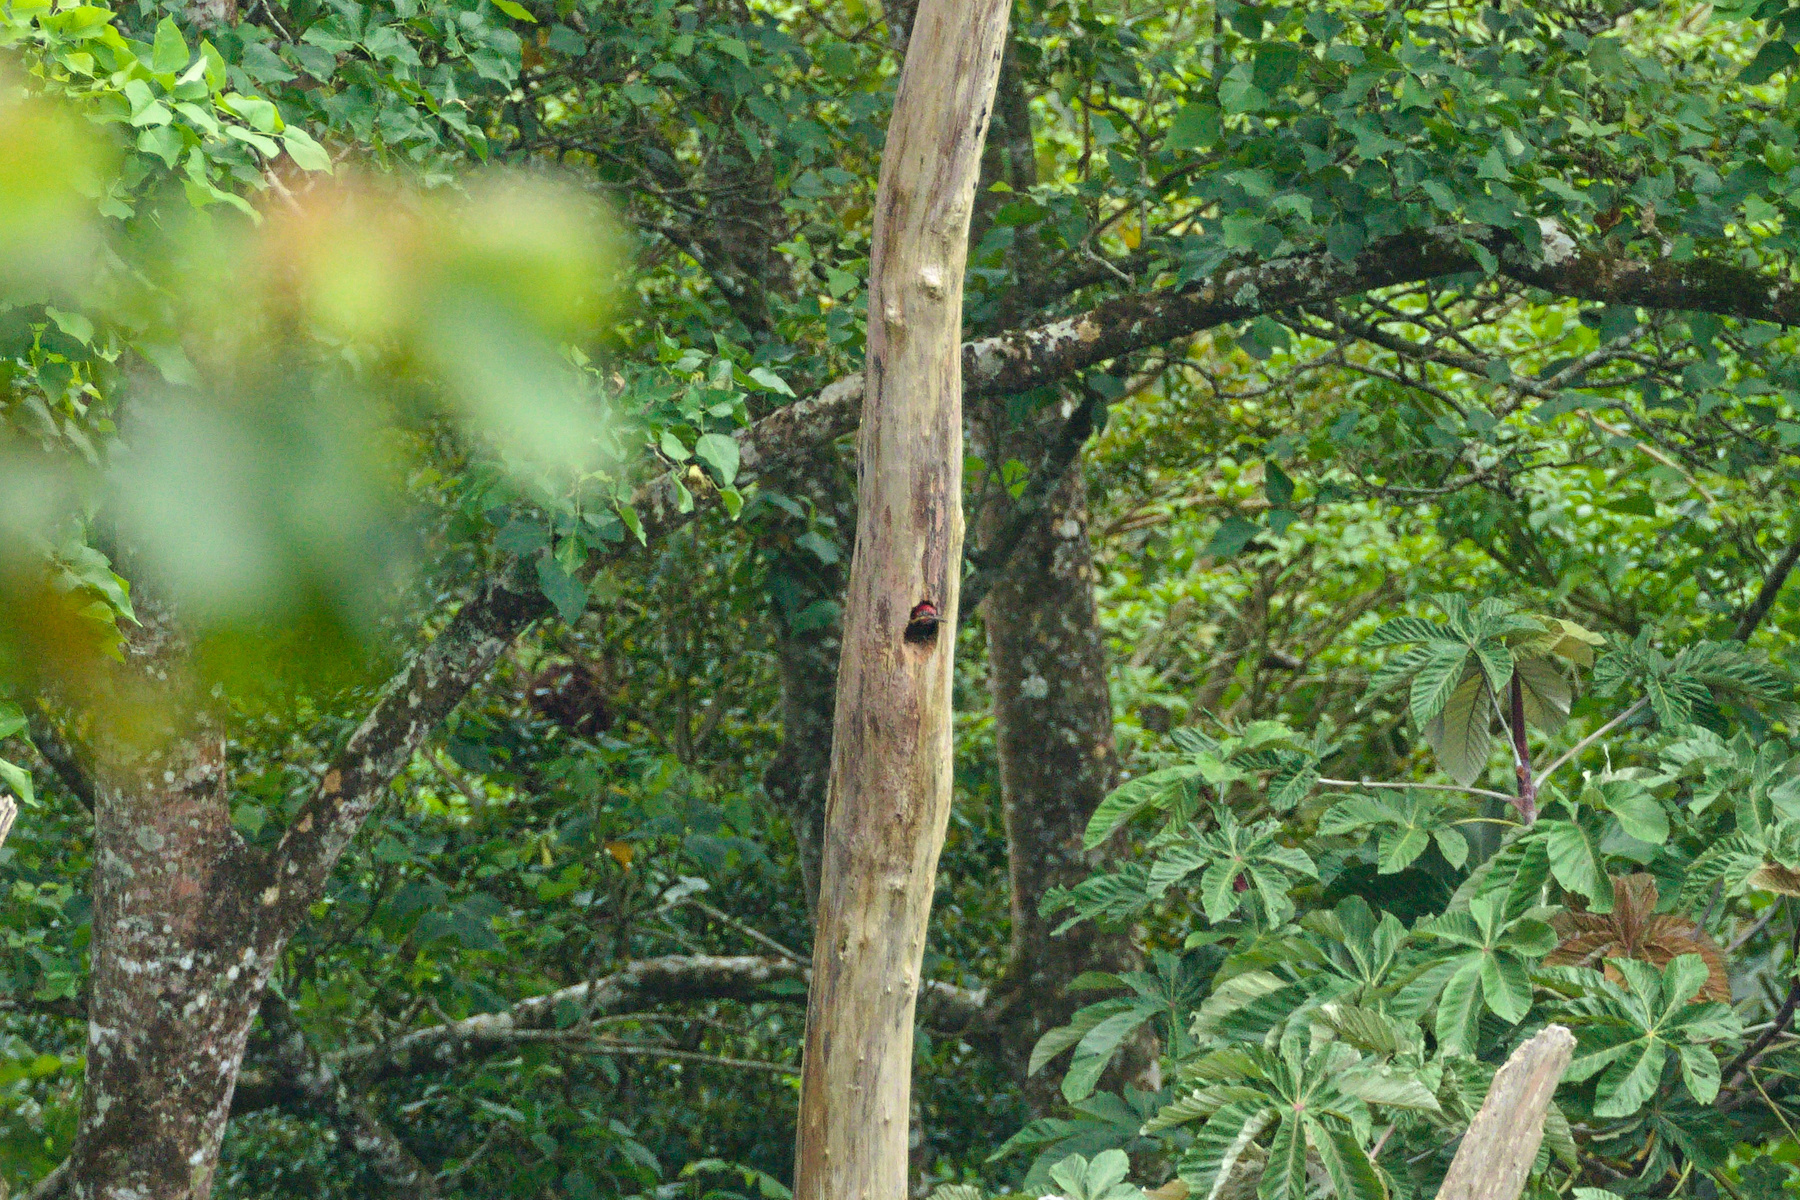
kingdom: Animalia
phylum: Chordata
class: Aves
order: Piciformes
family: Picidae
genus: Dryocopus
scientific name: Dryocopus lineatus
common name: Lineated woodpecker
